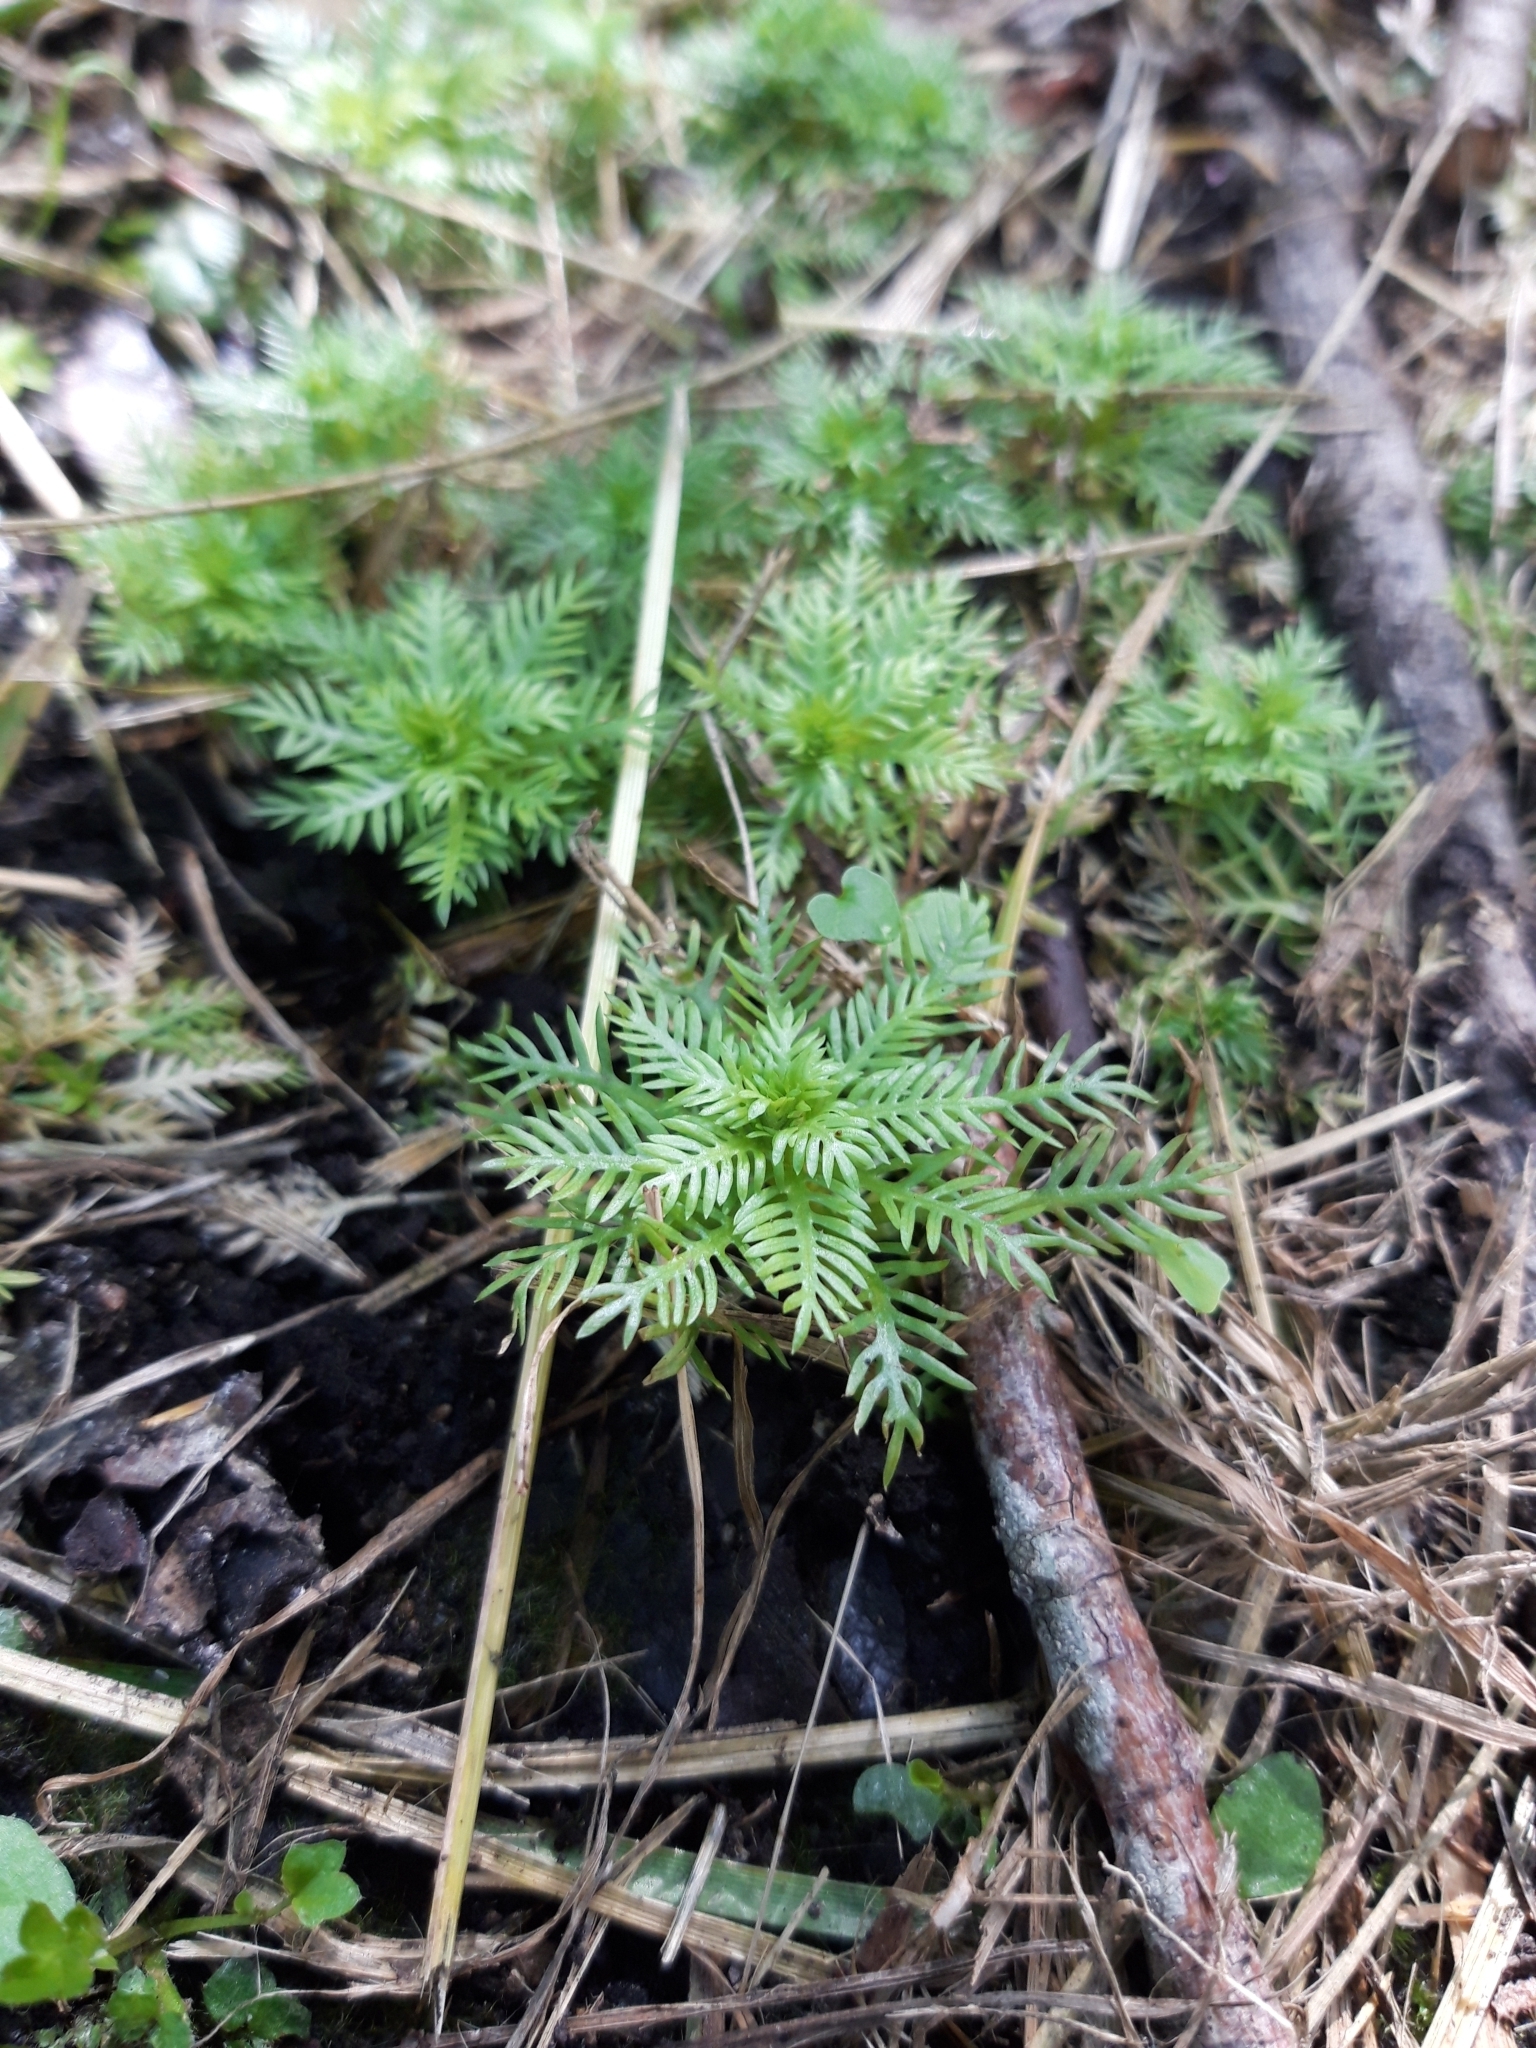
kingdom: Plantae
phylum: Tracheophyta
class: Magnoliopsida
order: Ericales
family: Primulaceae
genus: Hottonia
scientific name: Hottonia palustris
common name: Water-violet
